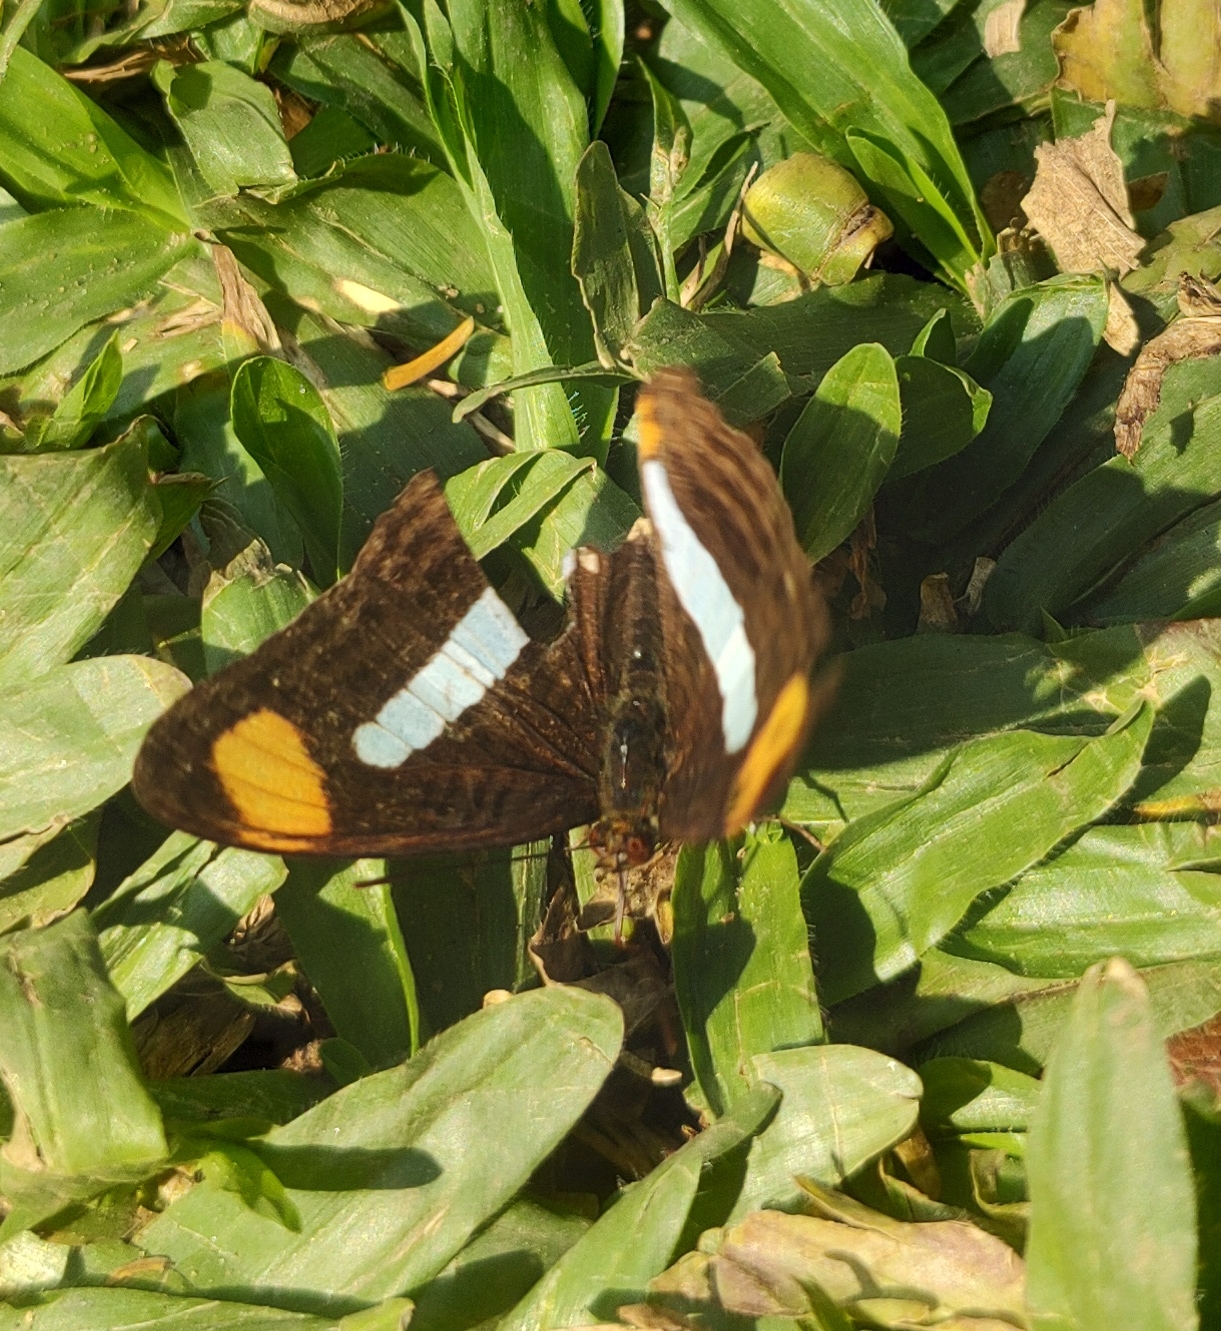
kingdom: Animalia
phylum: Arthropoda
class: Insecta
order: Lepidoptera
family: Nymphalidae
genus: Limenitis
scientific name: Limenitis Adelpha iphiclus
